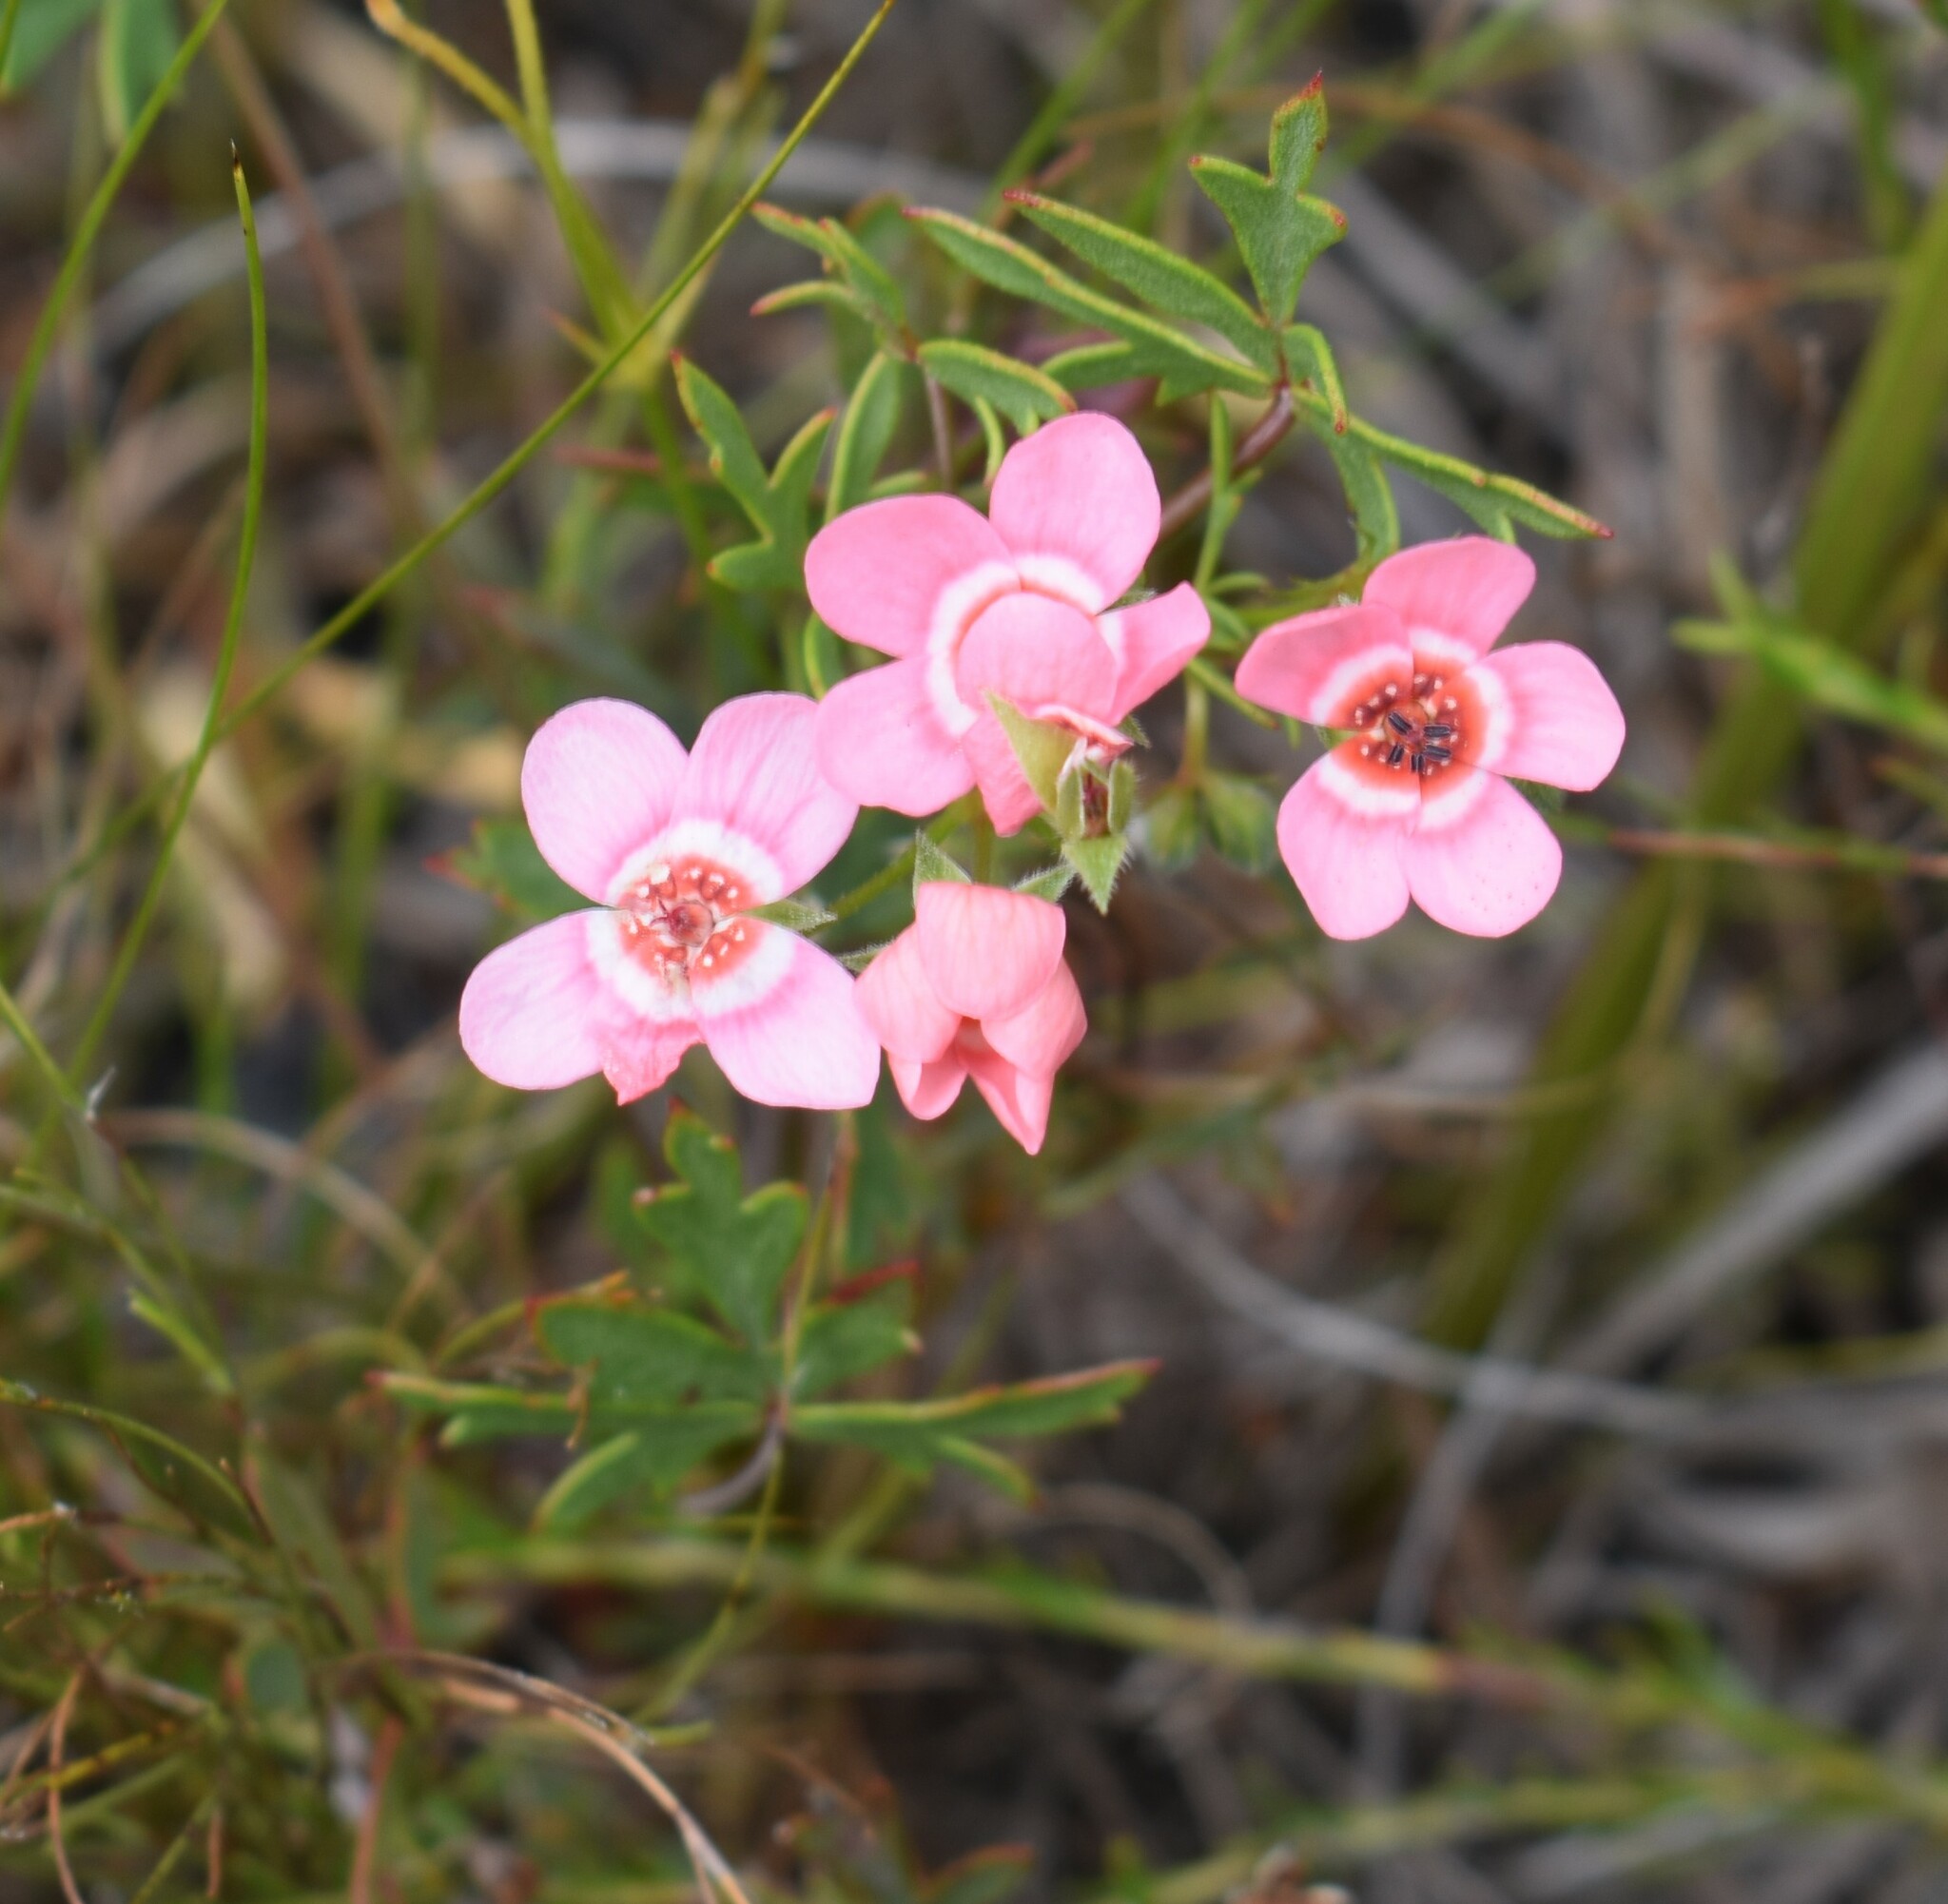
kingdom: Plantae
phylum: Tracheophyta
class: Magnoliopsida
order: Geraniales
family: Geraniaceae
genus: Pelargonium
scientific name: Pelargonium incarnatum
